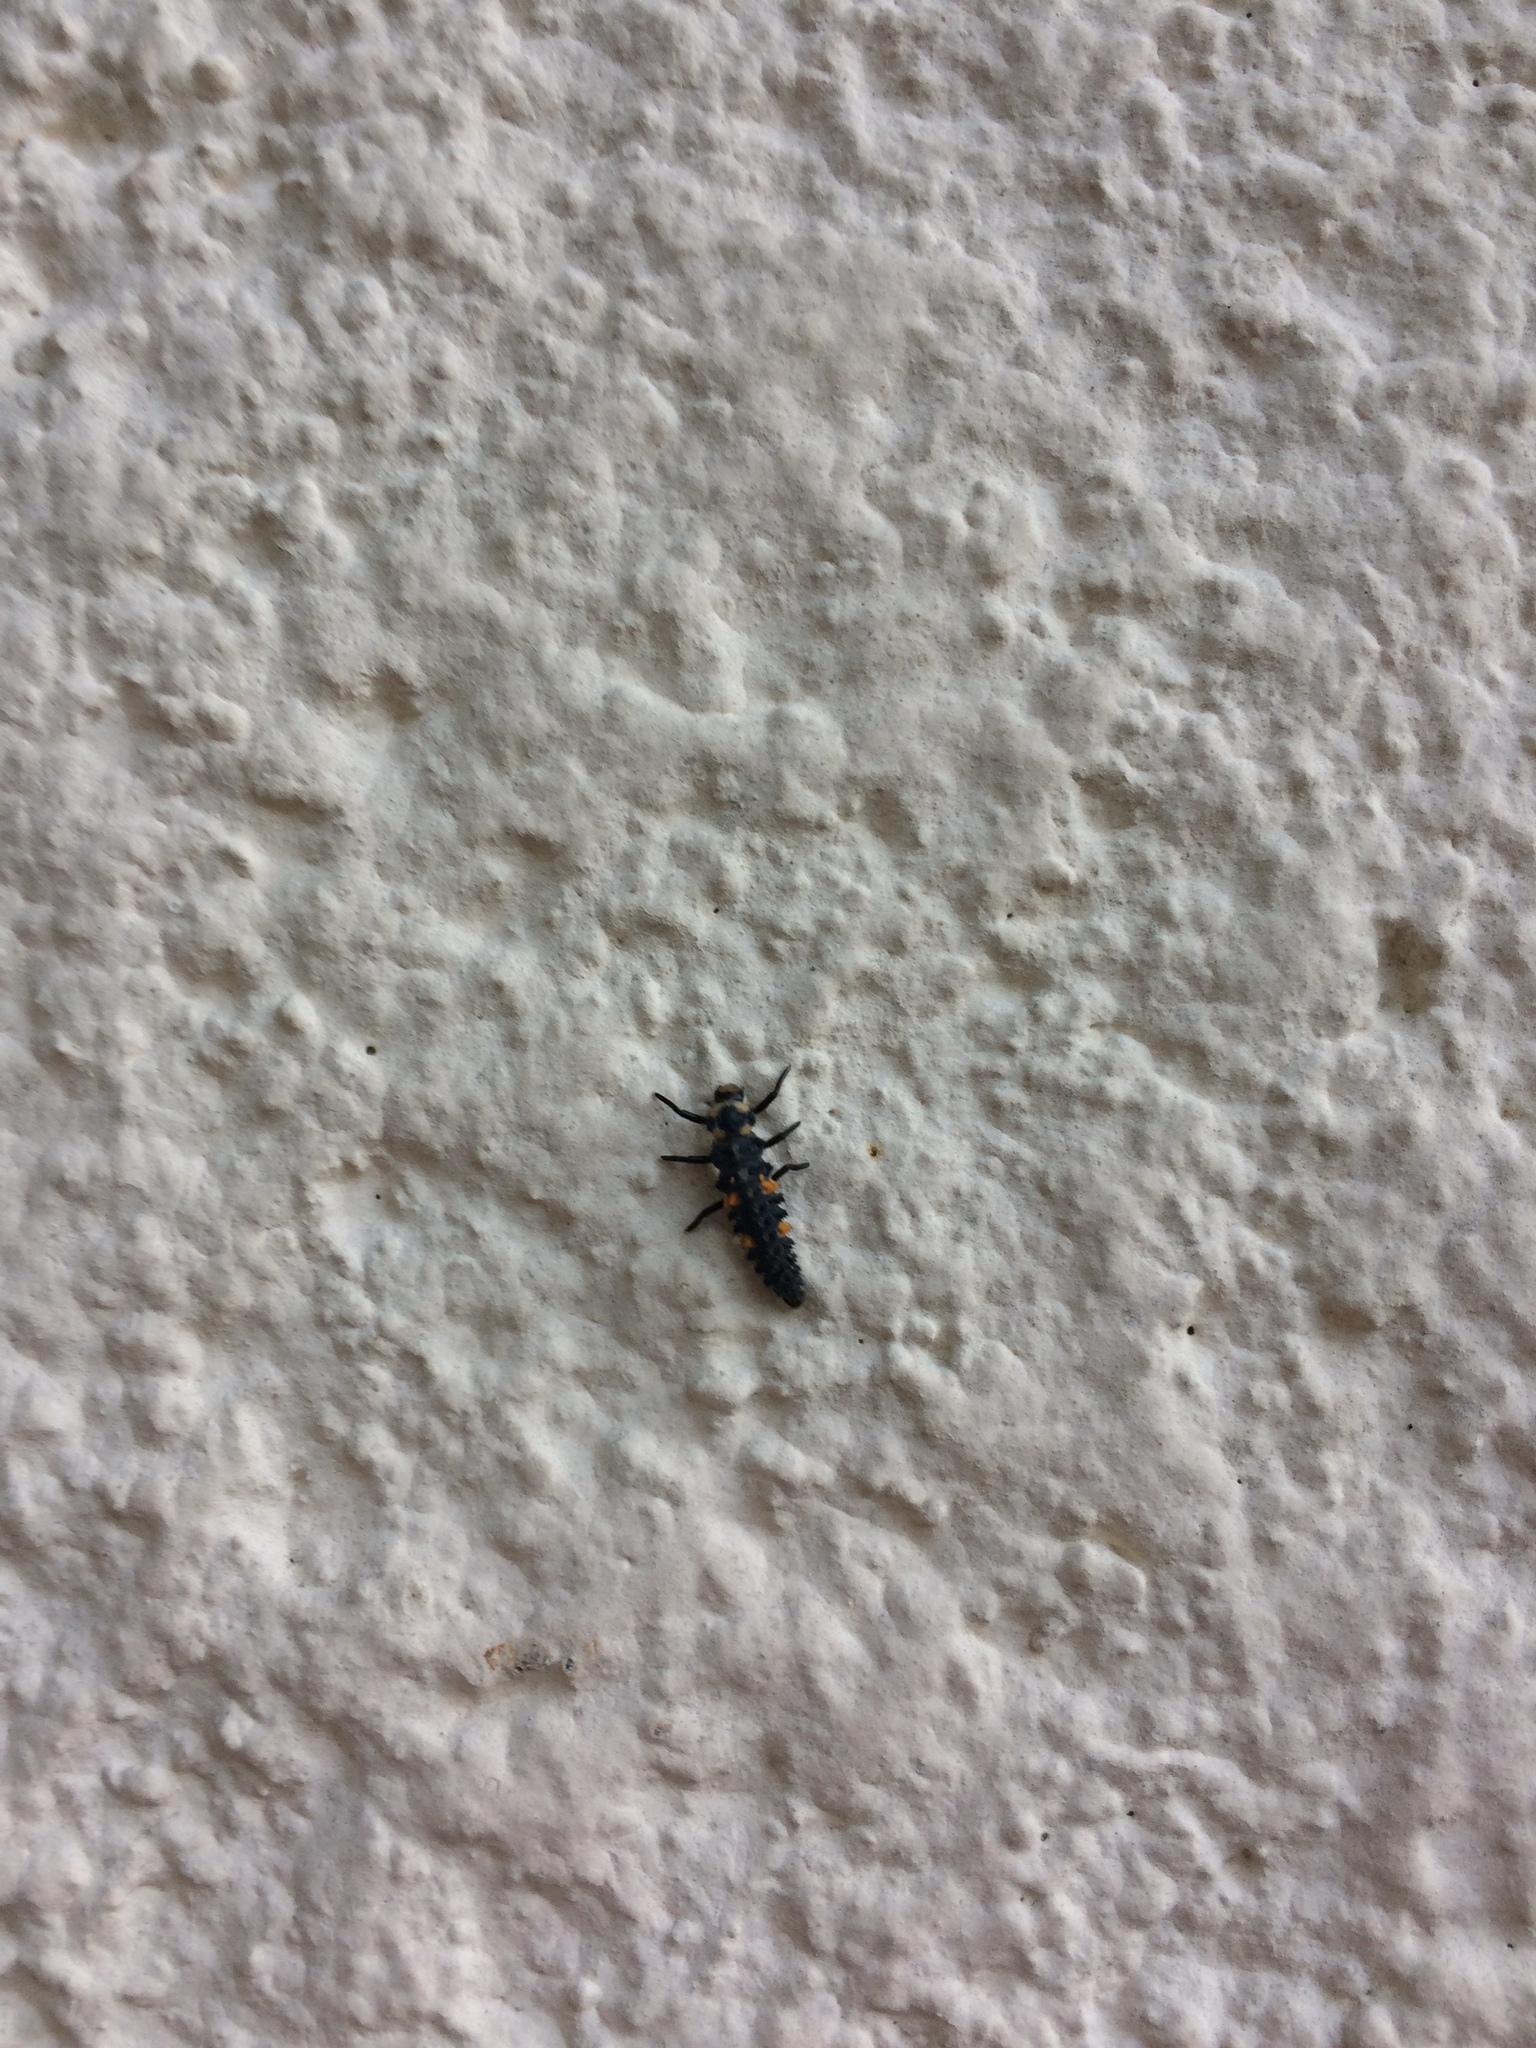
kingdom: Animalia
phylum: Arthropoda
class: Insecta
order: Coleoptera
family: Coccinellidae
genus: Coccinella
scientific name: Coccinella septempunctata
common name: Sevenspotted lady beetle
